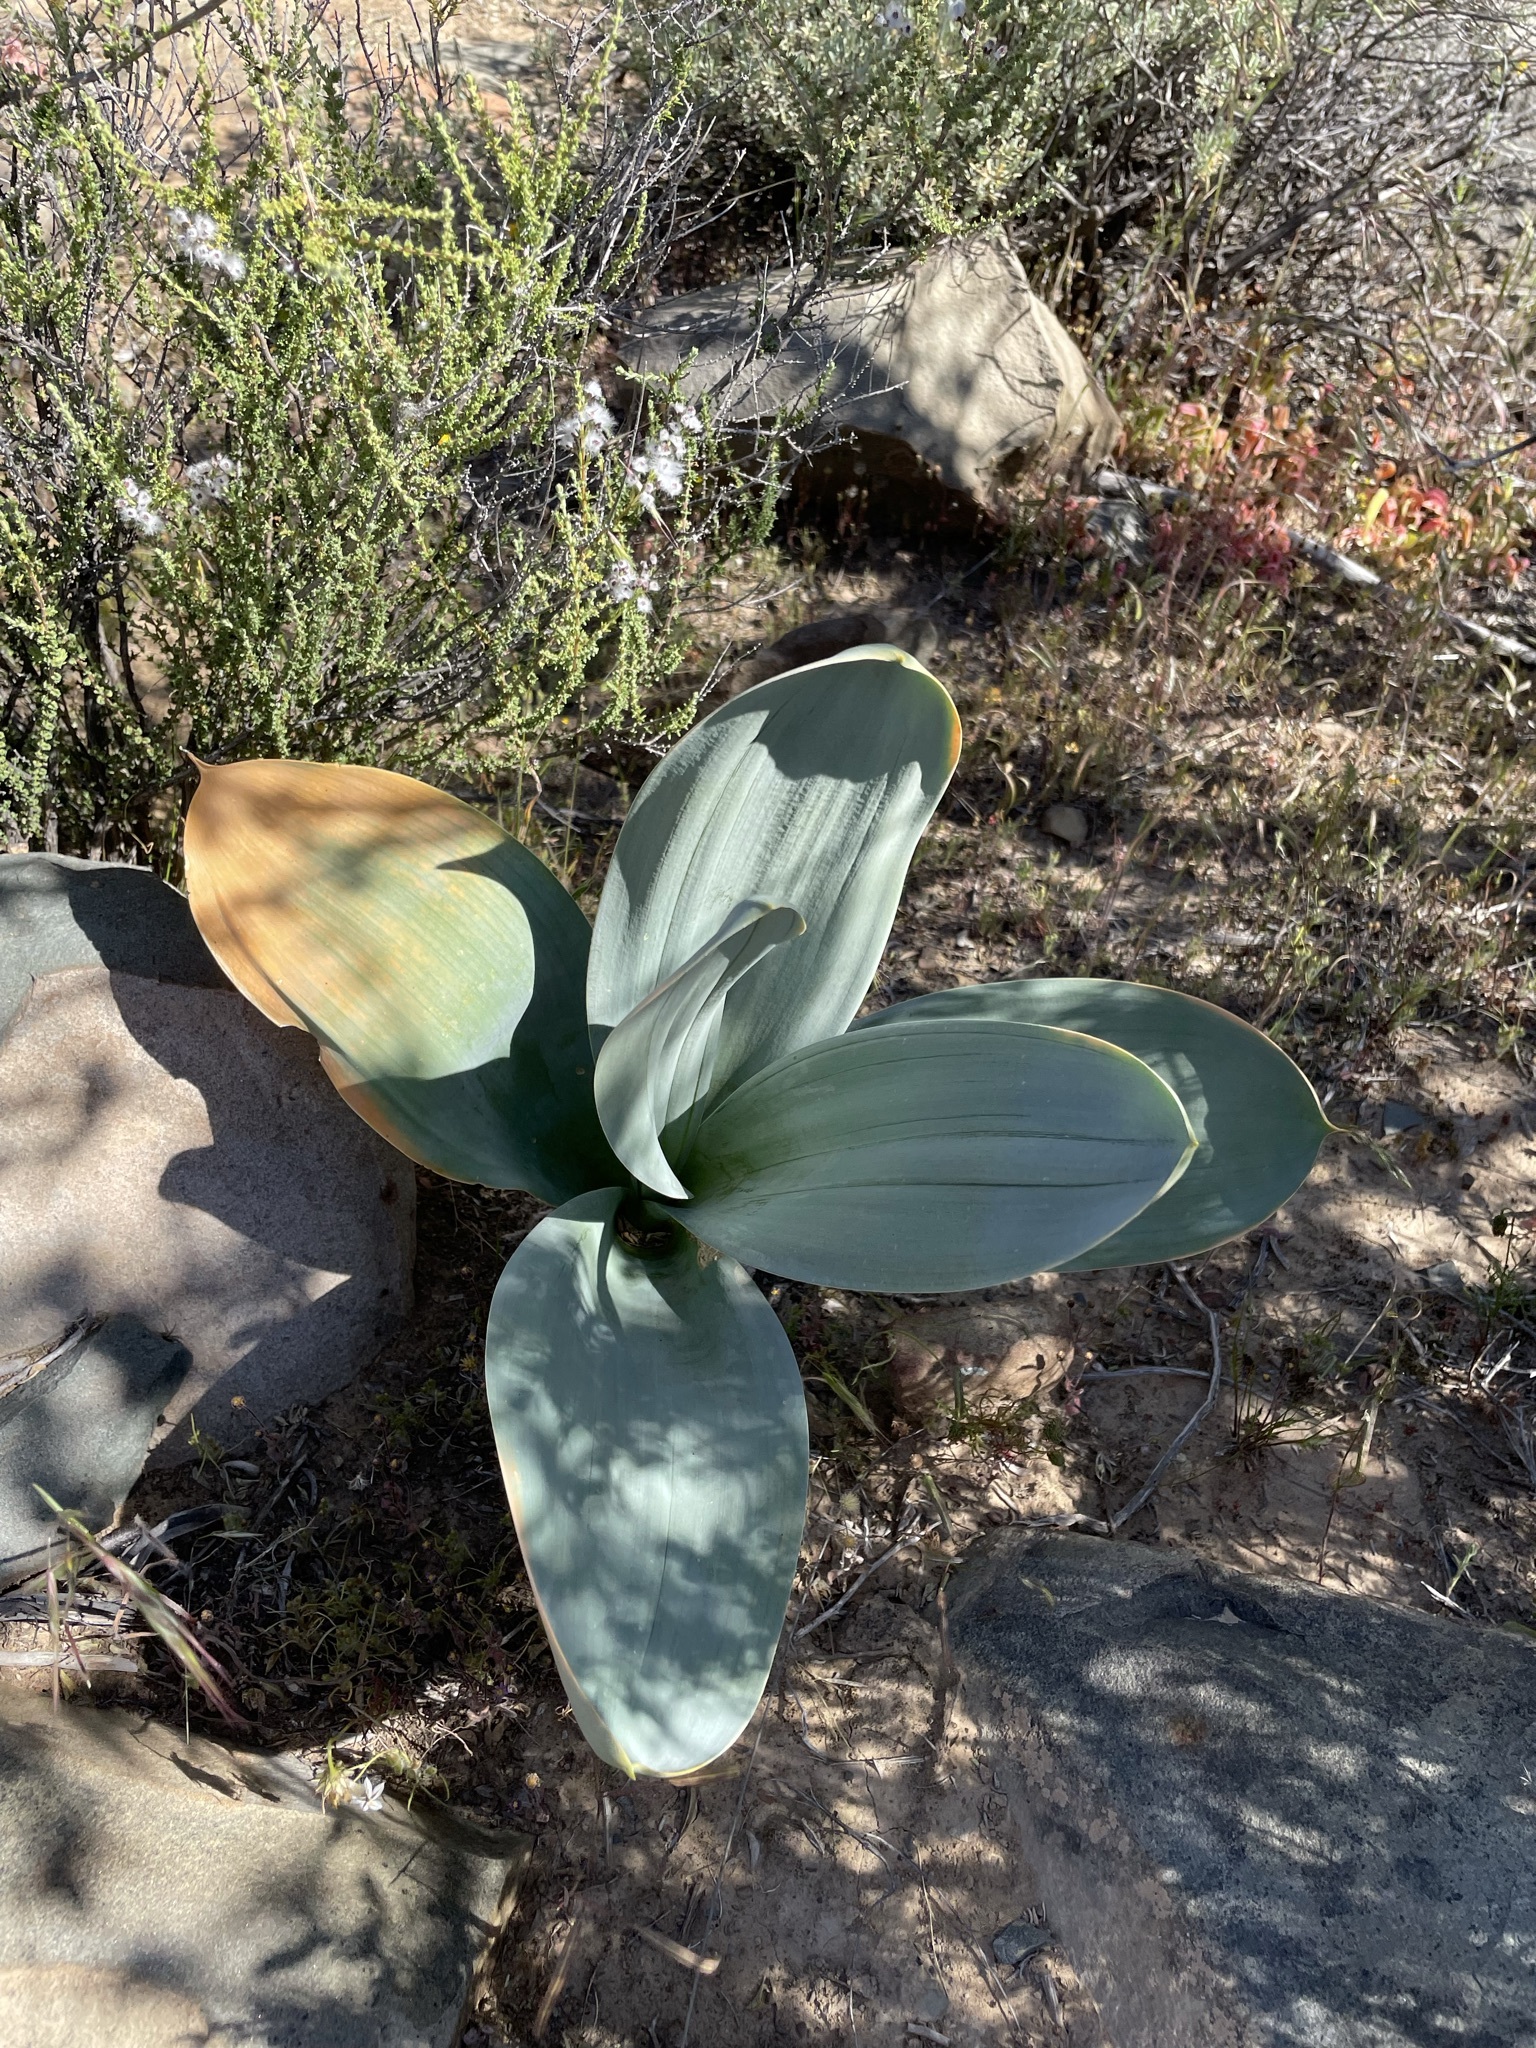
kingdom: Plantae
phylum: Tracheophyta
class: Liliopsida
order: Asparagales
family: Asparagaceae
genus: Drimia
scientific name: Drimia capensis
